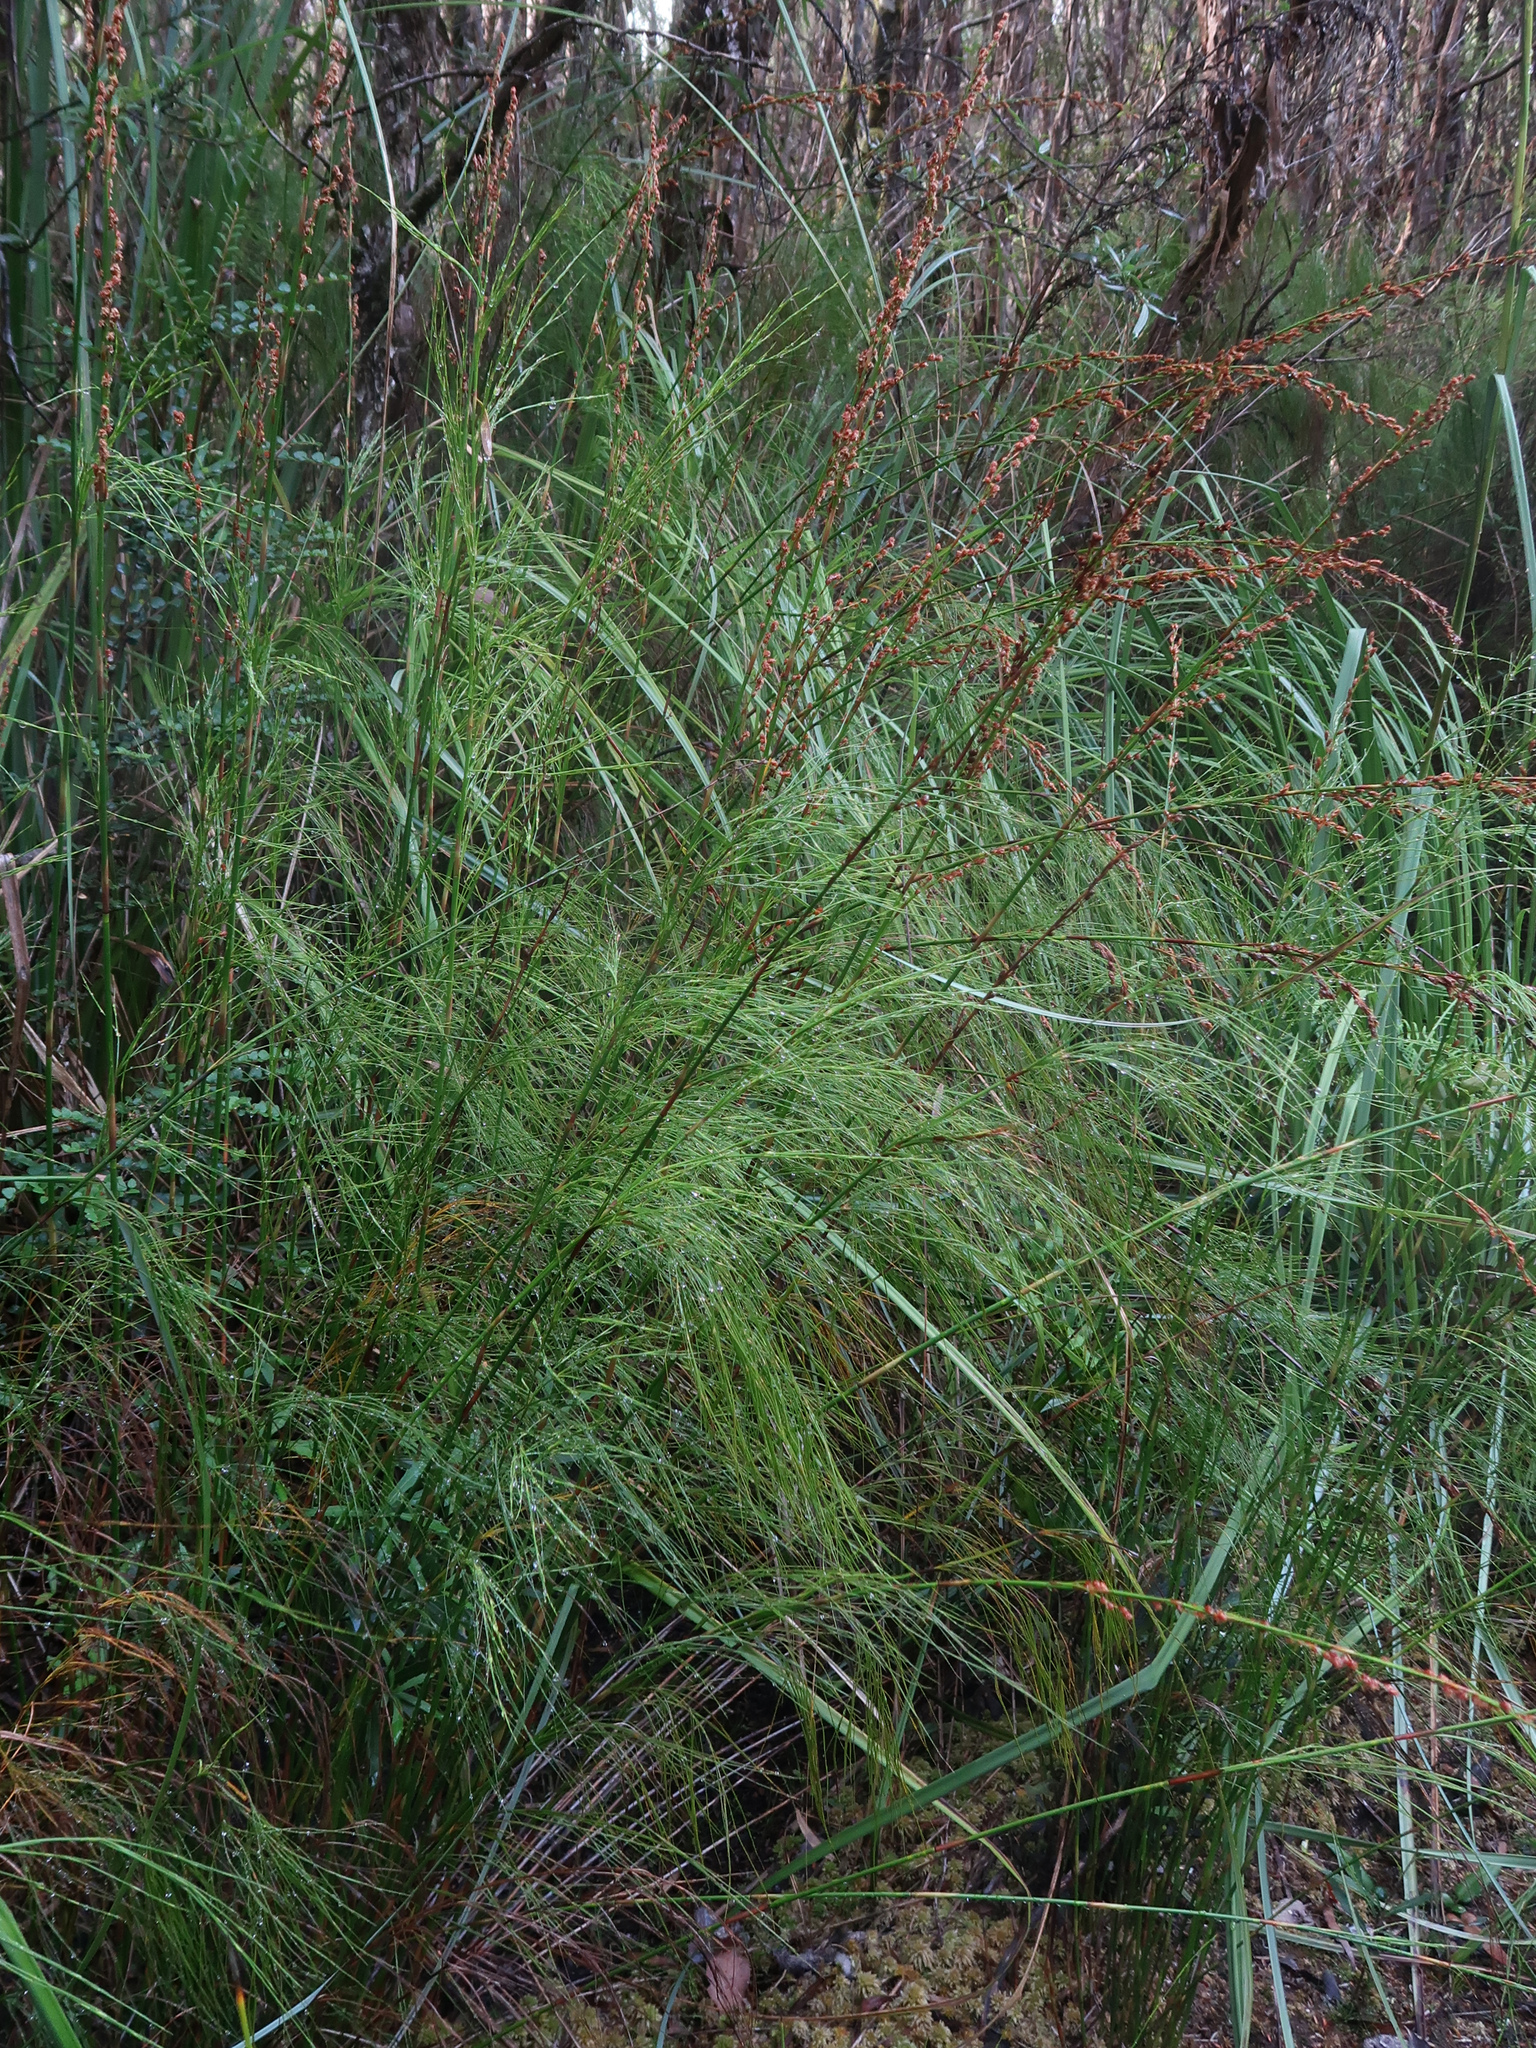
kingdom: Plantae
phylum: Tracheophyta
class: Liliopsida
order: Poales
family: Restionaceae
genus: Baloskion
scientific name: Baloskion tetraphyllum
